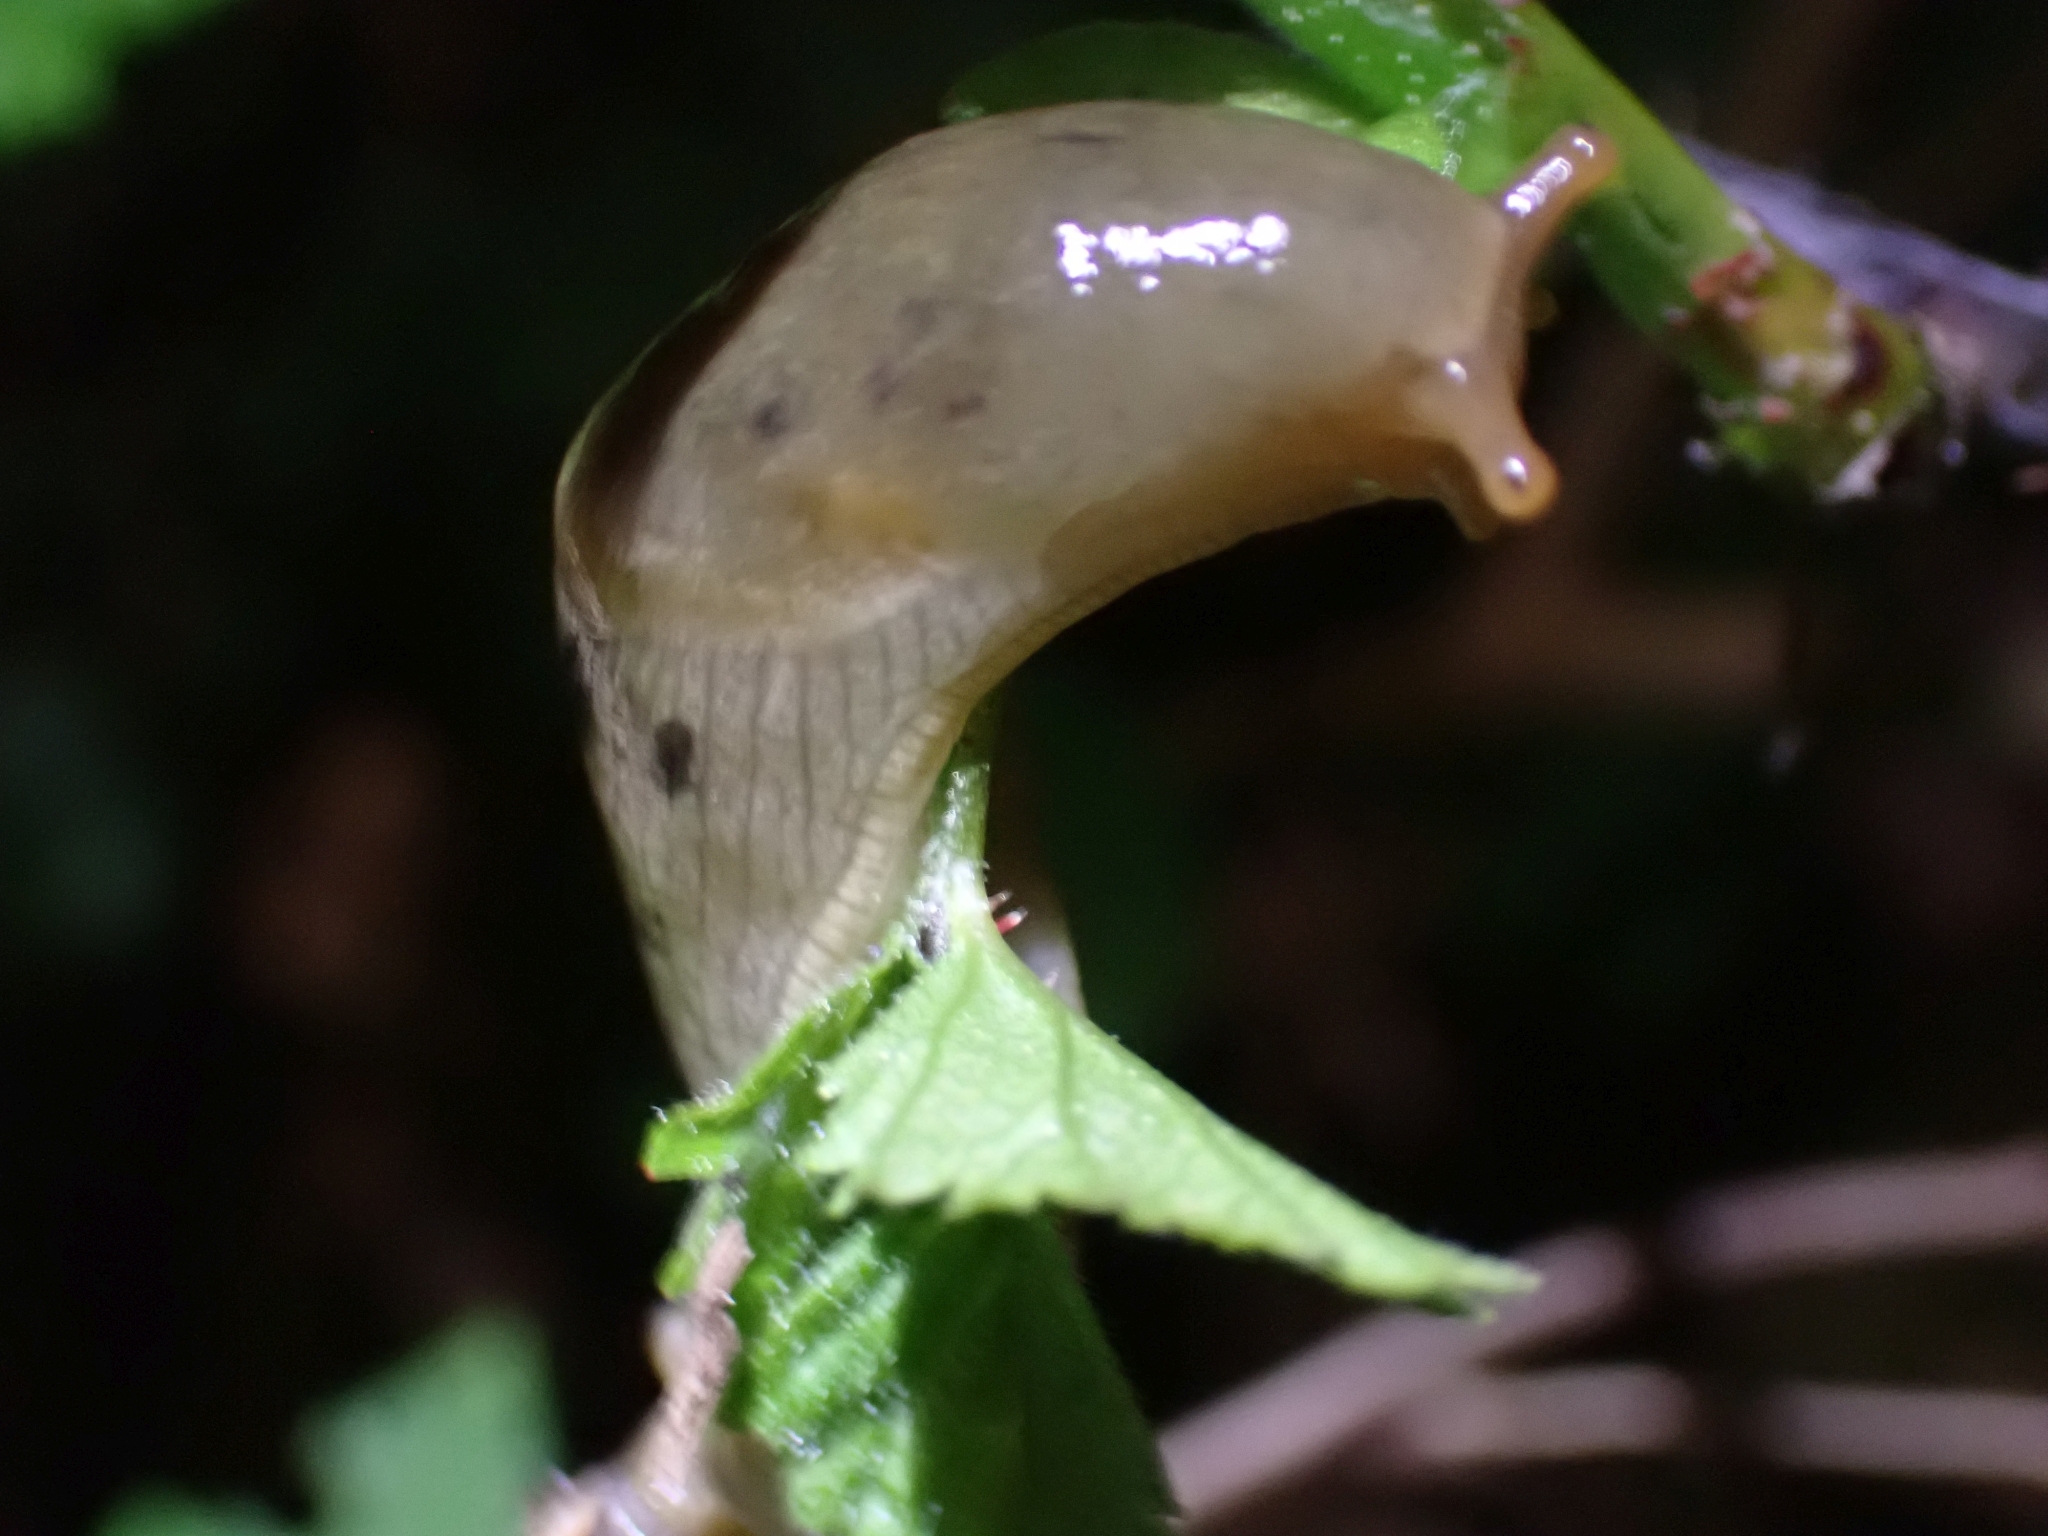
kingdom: Animalia
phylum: Mollusca
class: Gastropoda
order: Stylommatophora
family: Ariolimacidae
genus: Ariolimax
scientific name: Ariolimax columbianus
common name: Pacific banana slug
